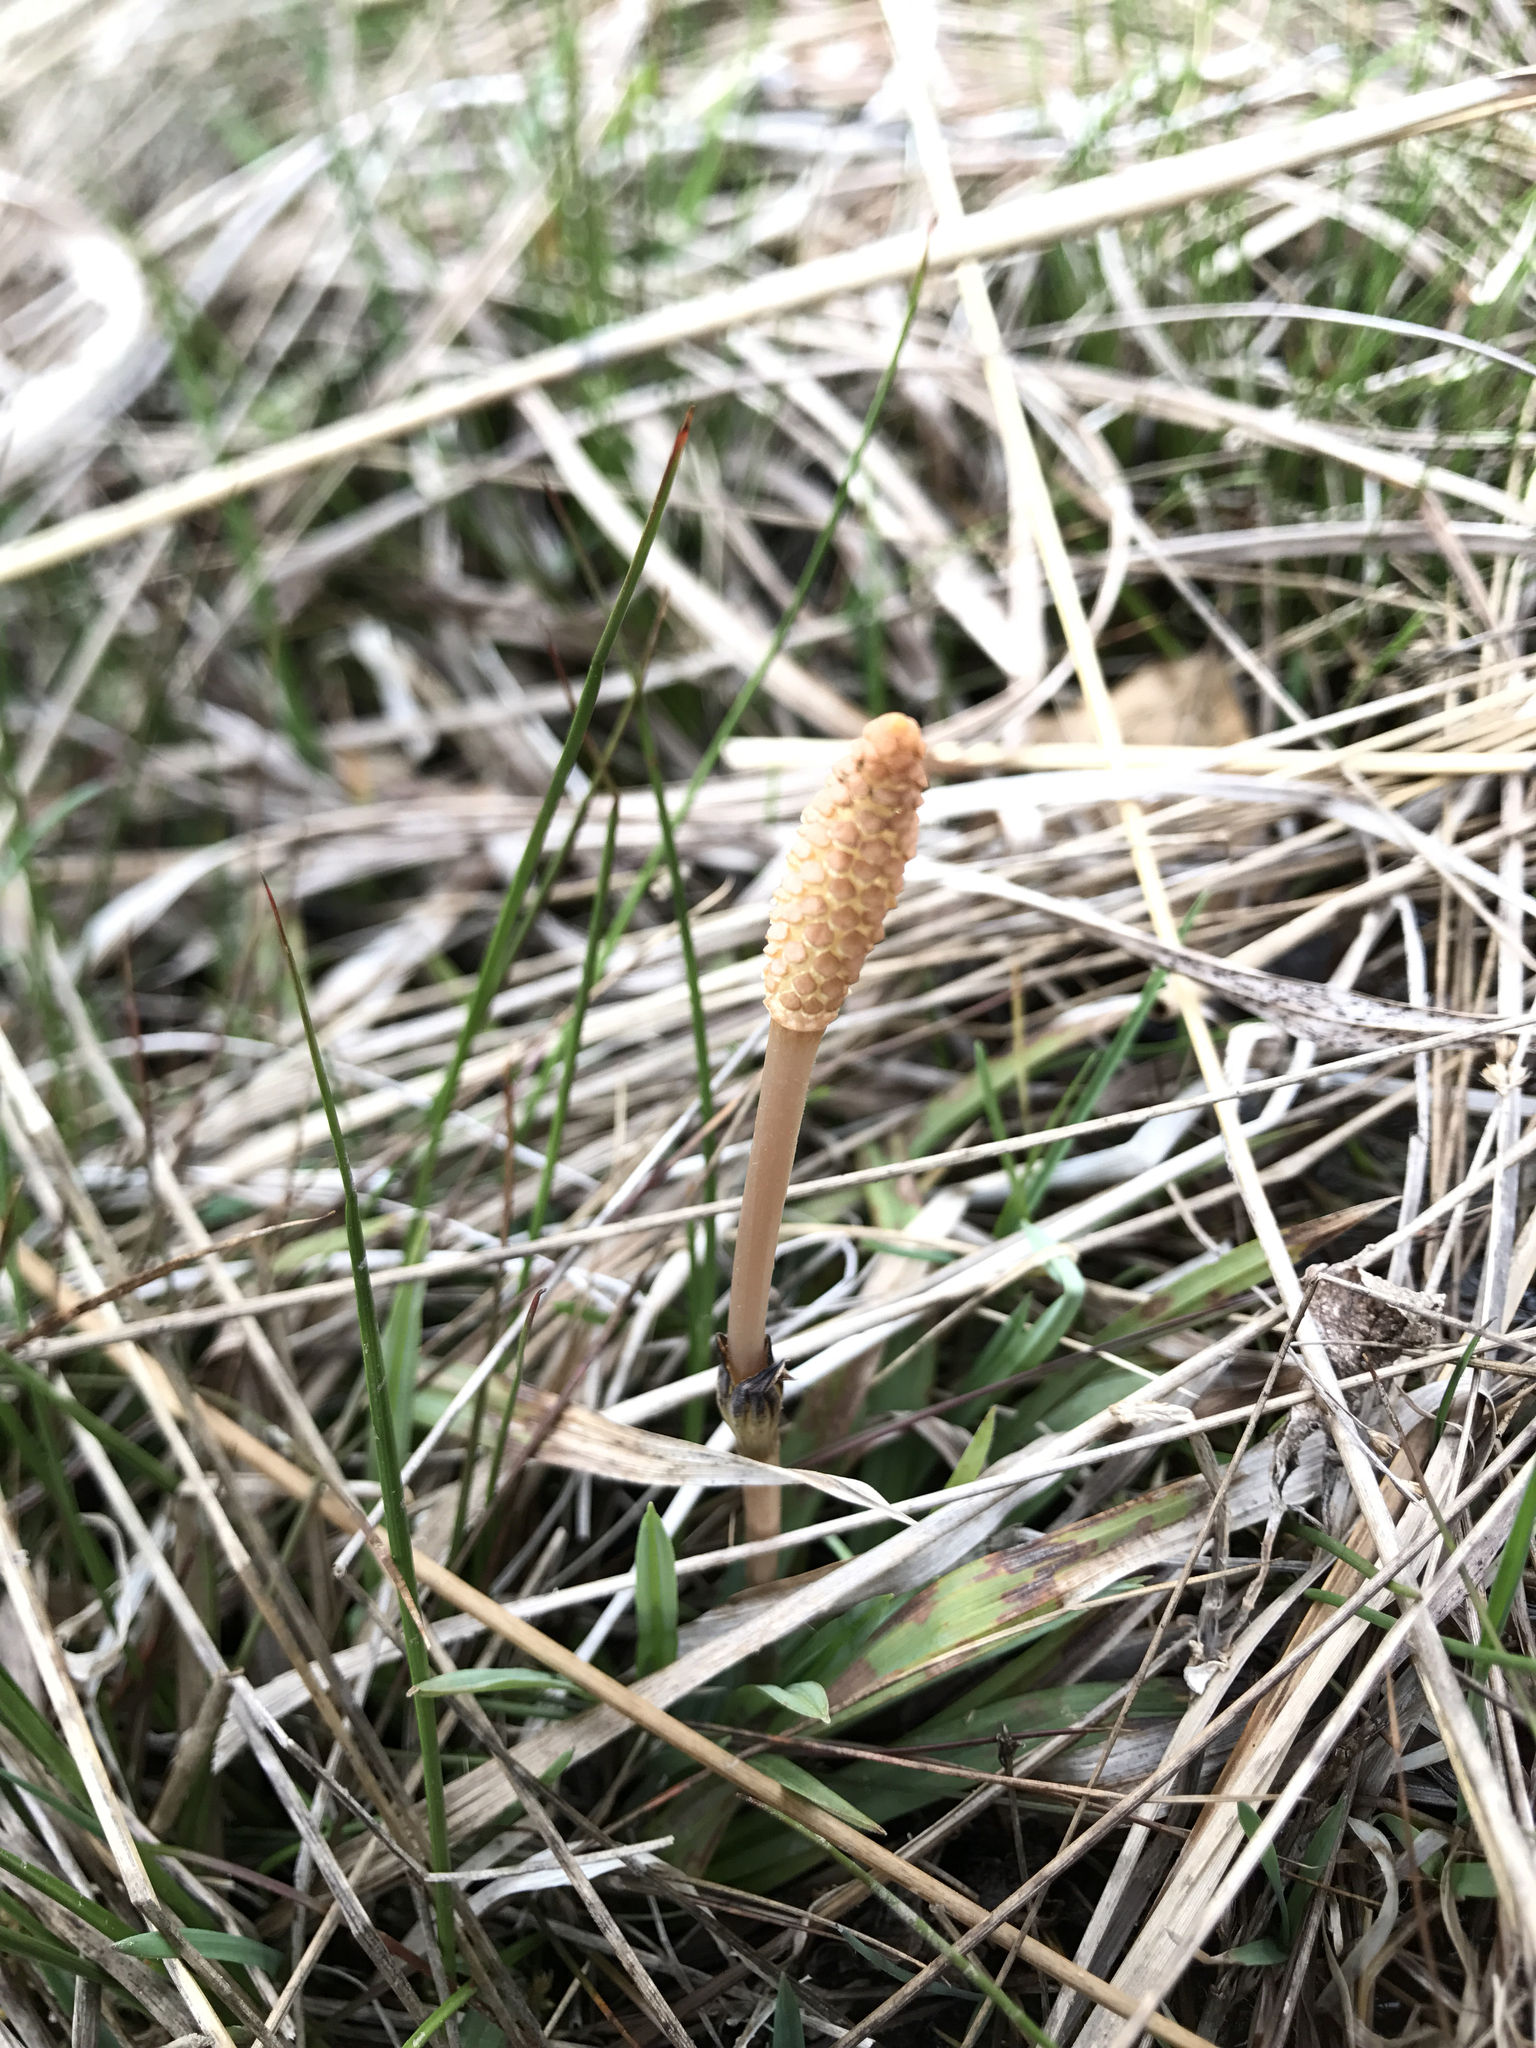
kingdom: Plantae
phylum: Tracheophyta
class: Polypodiopsida
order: Equisetales
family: Equisetaceae
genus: Equisetum
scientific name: Equisetum arvense
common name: Field horsetail
